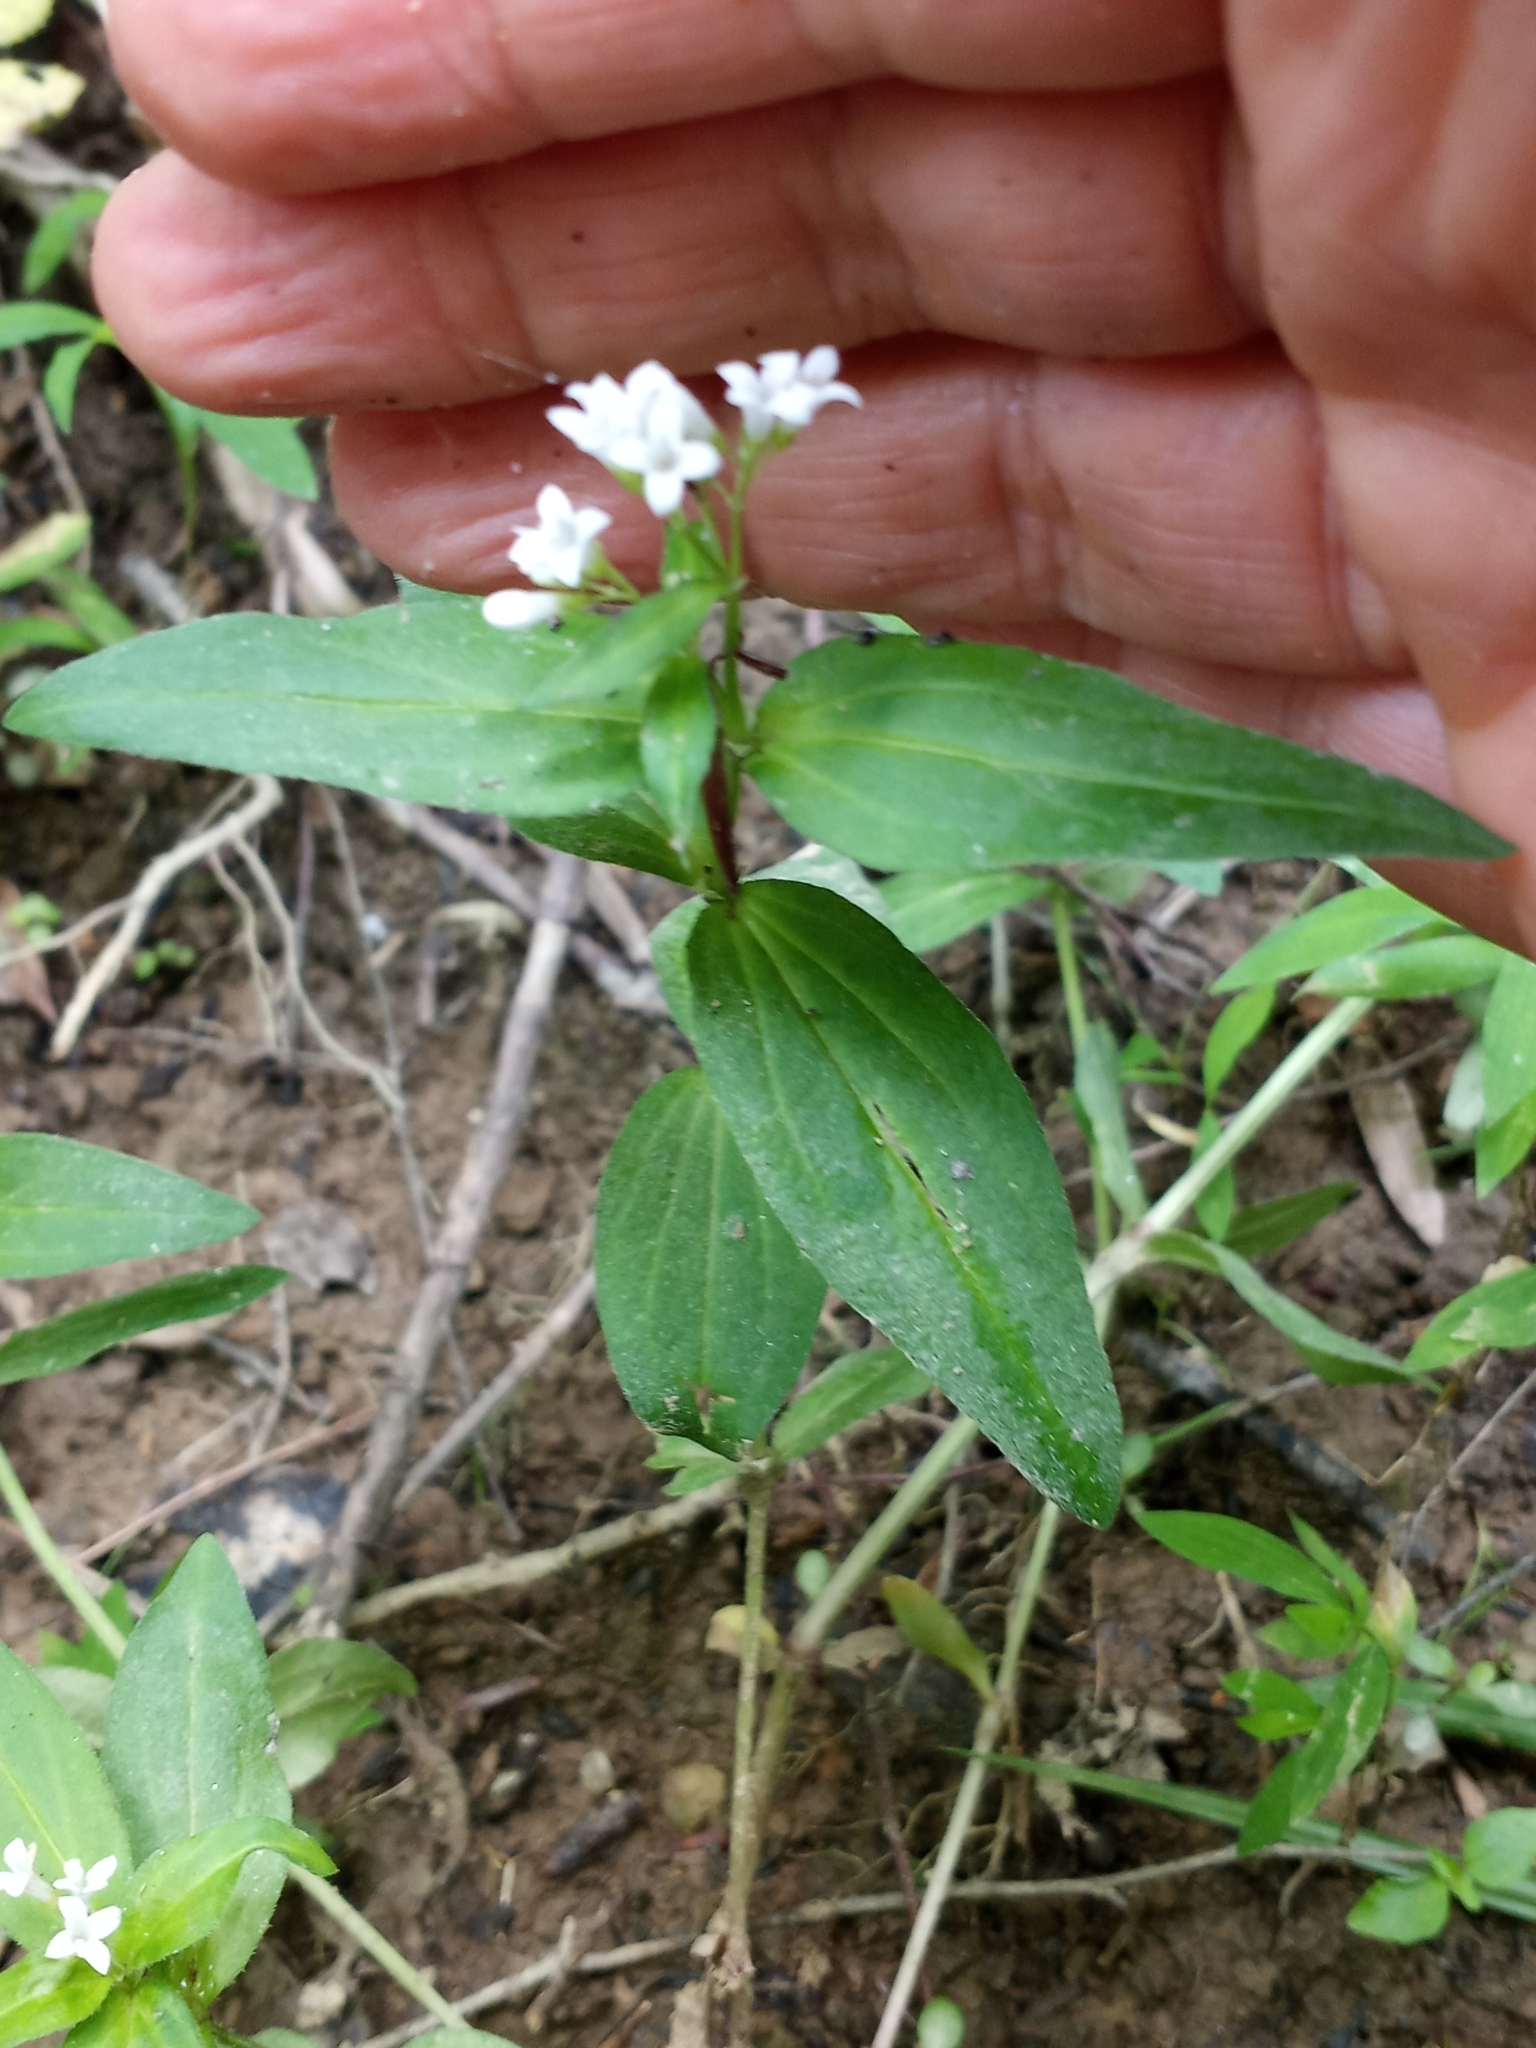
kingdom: Plantae
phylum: Tracheophyta
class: Magnoliopsida
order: Gentianales
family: Rubiaceae
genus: Houstonia
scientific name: Houstonia purpurea
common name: Summer bluet
